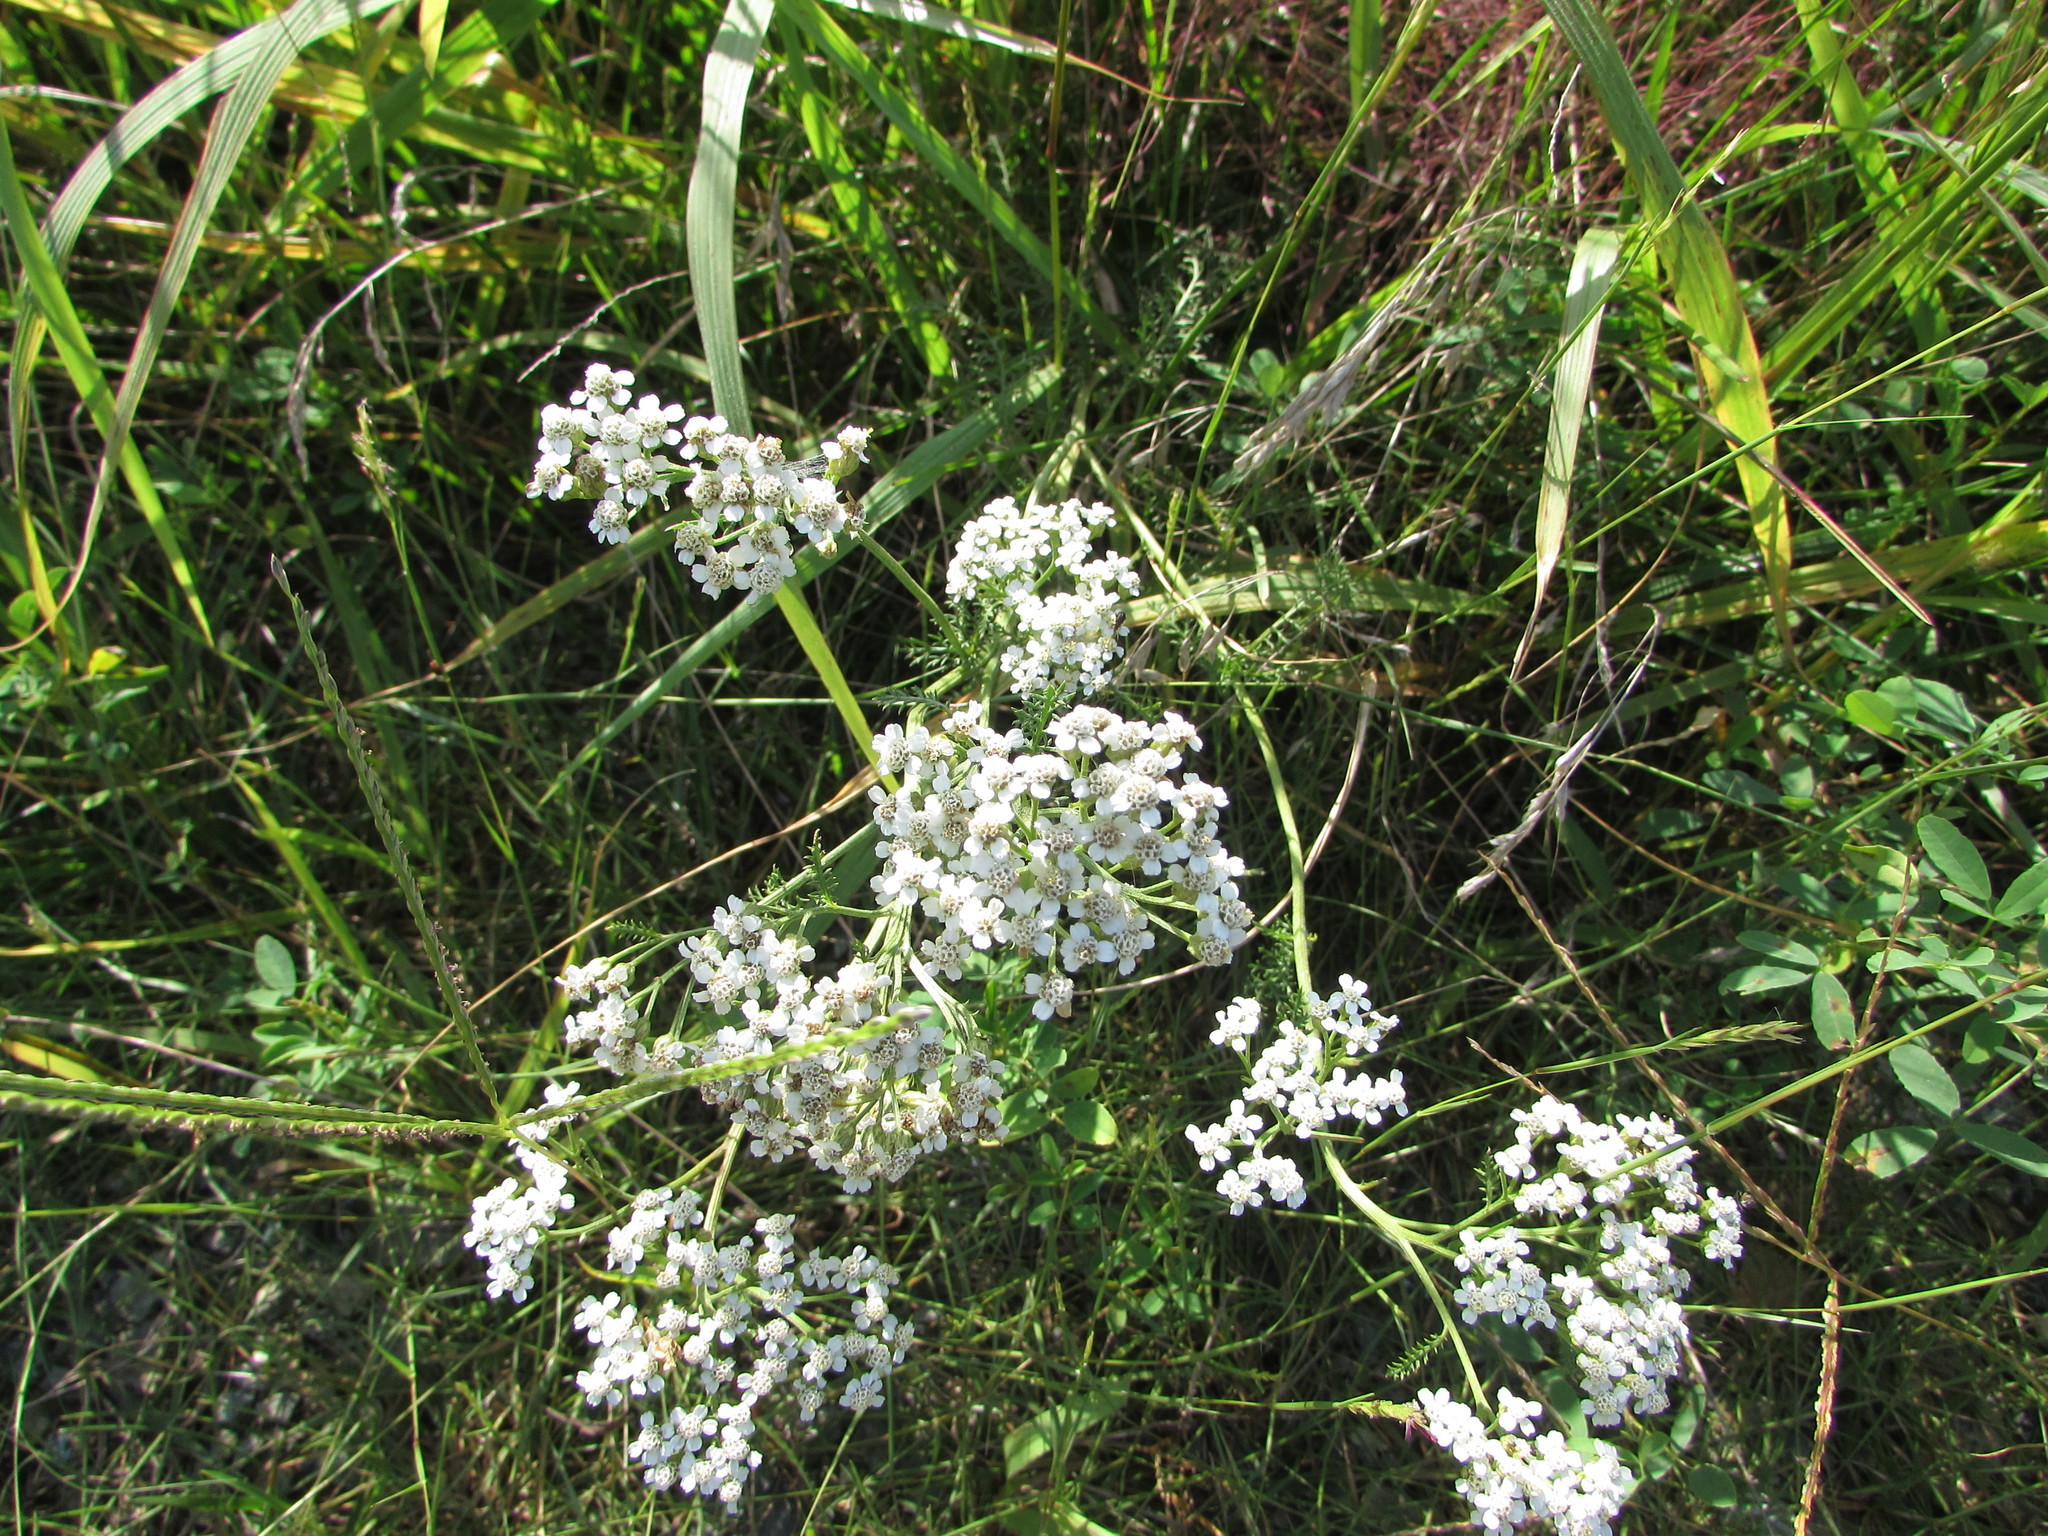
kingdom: Plantae
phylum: Tracheophyta
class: Magnoliopsida
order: Asterales
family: Asteraceae
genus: Achillea
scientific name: Achillea millefolium
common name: Yarrow
